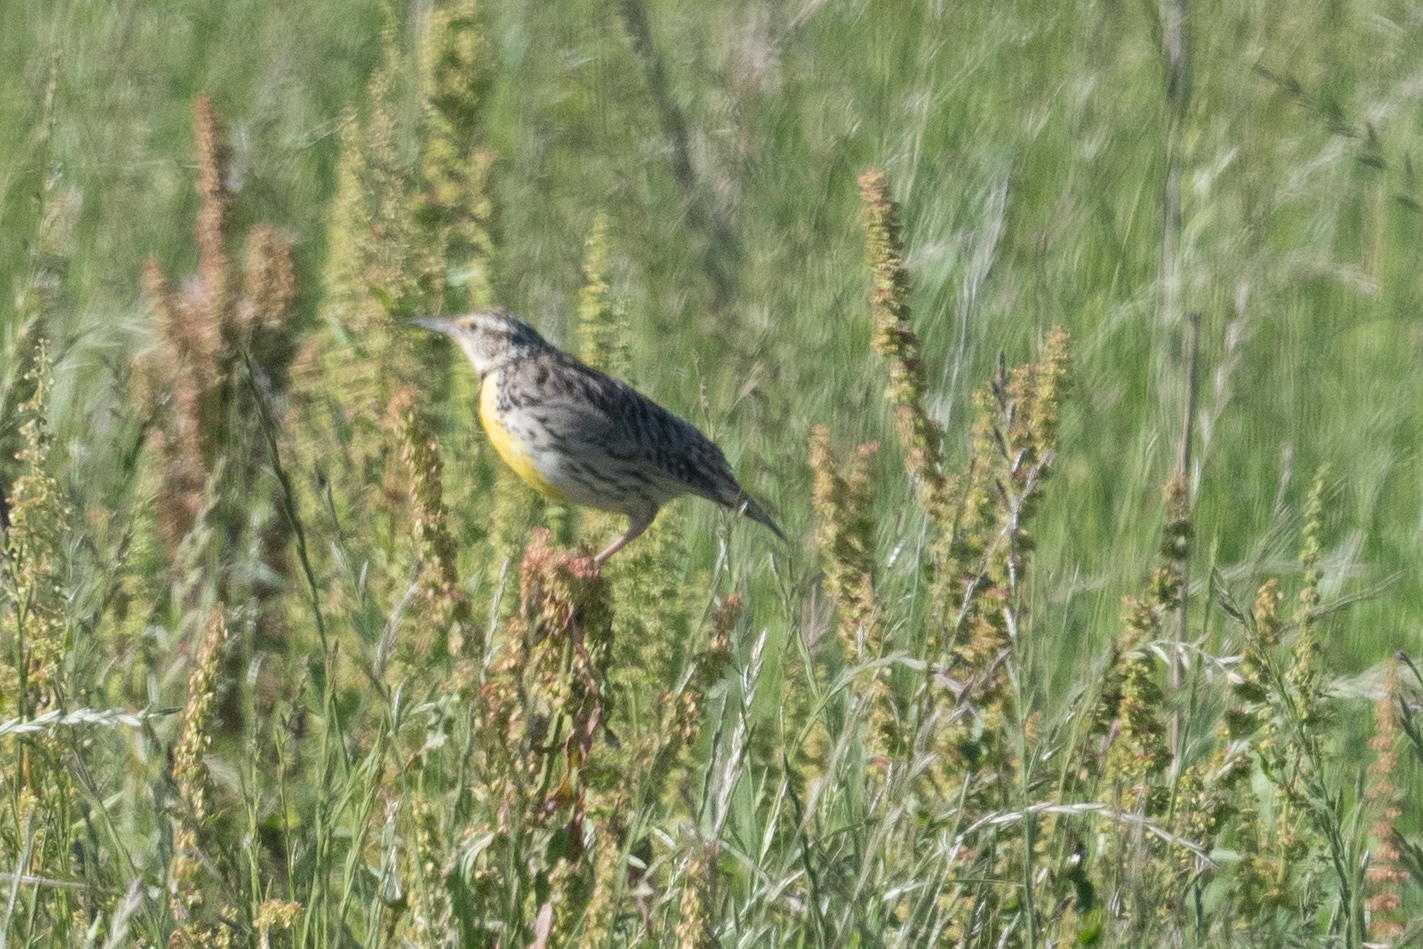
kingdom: Animalia
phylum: Chordata
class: Aves
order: Passeriformes
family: Icteridae
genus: Sturnella
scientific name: Sturnella neglecta
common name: Western meadowlark
